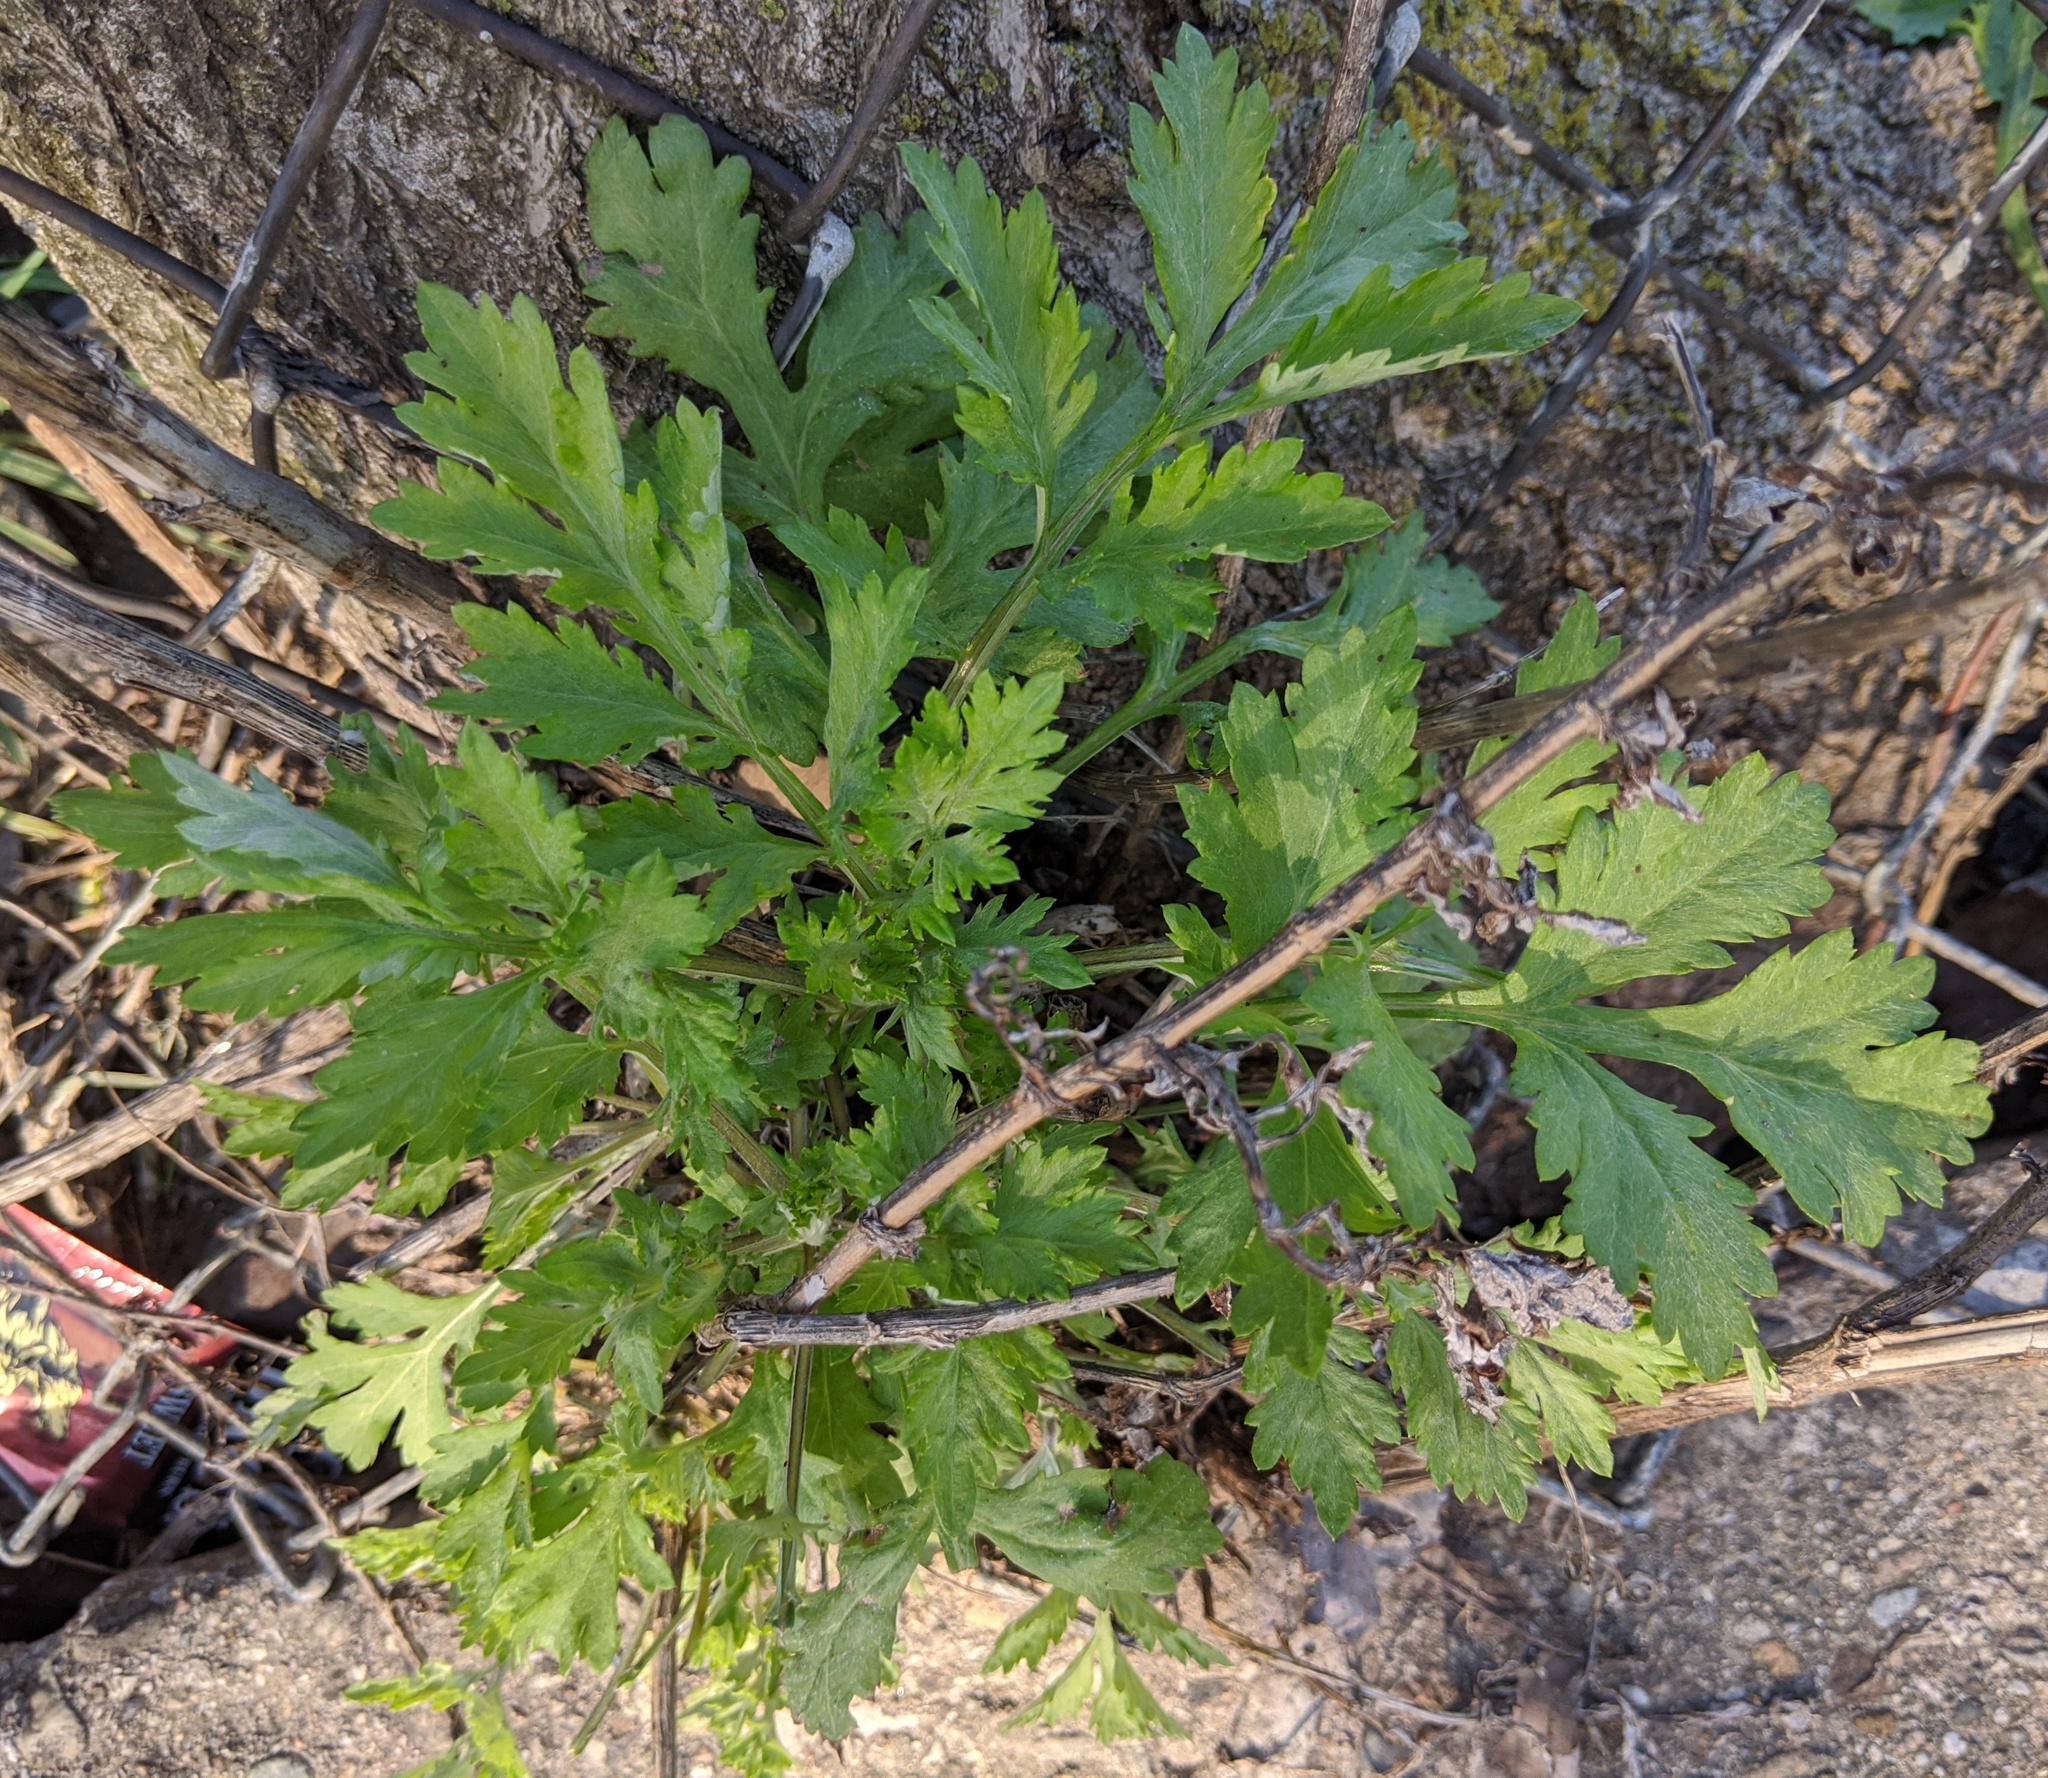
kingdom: Plantae
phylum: Tracheophyta
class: Magnoliopsida
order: Asterales
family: Asteraceae
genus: Artemisia
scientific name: Artemisia vulgaris
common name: Mugwort
